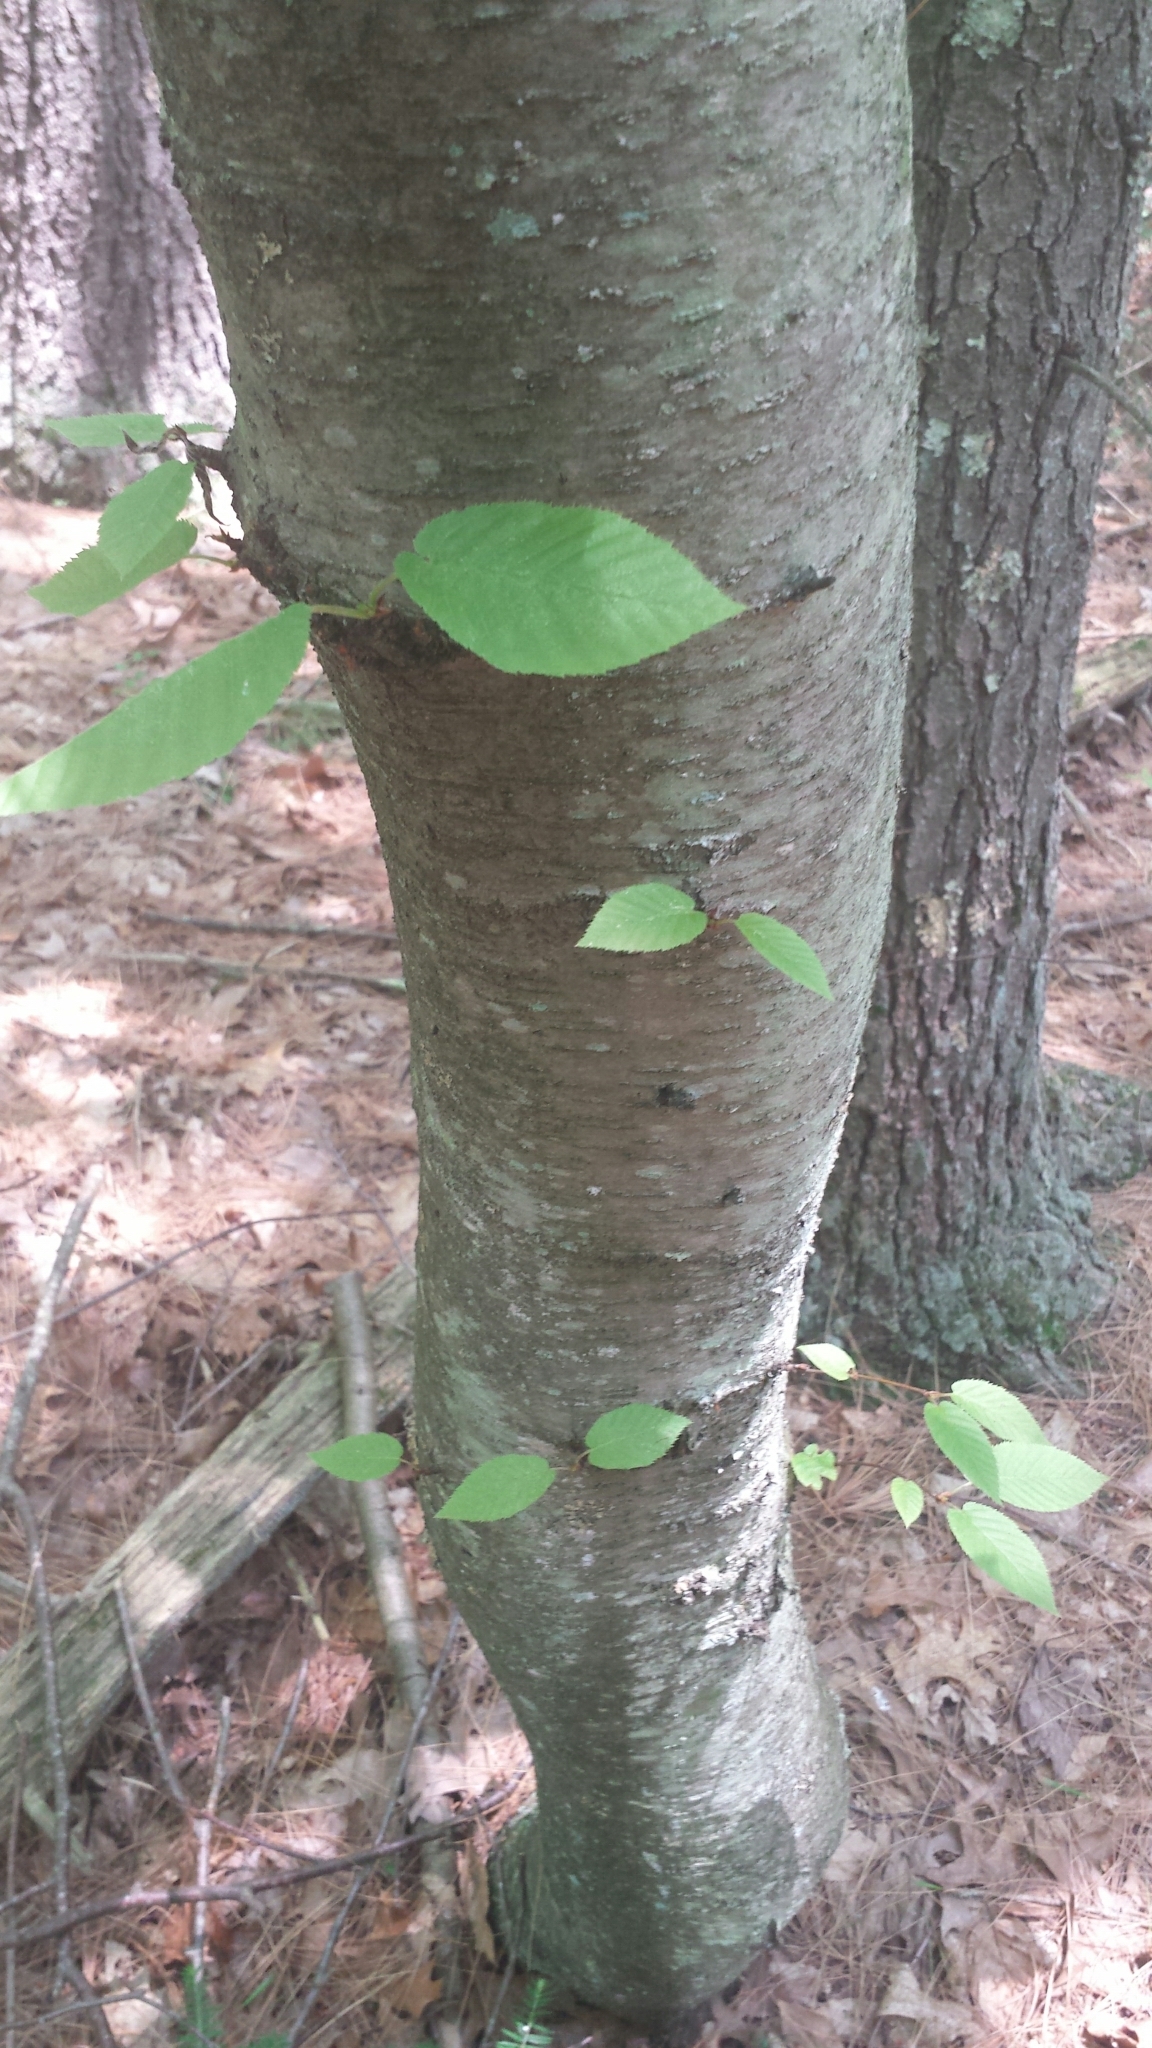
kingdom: Plantae
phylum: Tracheophyta
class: Magnoliopsida
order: Fagales
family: Betulaceae
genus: Betula
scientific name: Betula lenta
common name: Black birch
